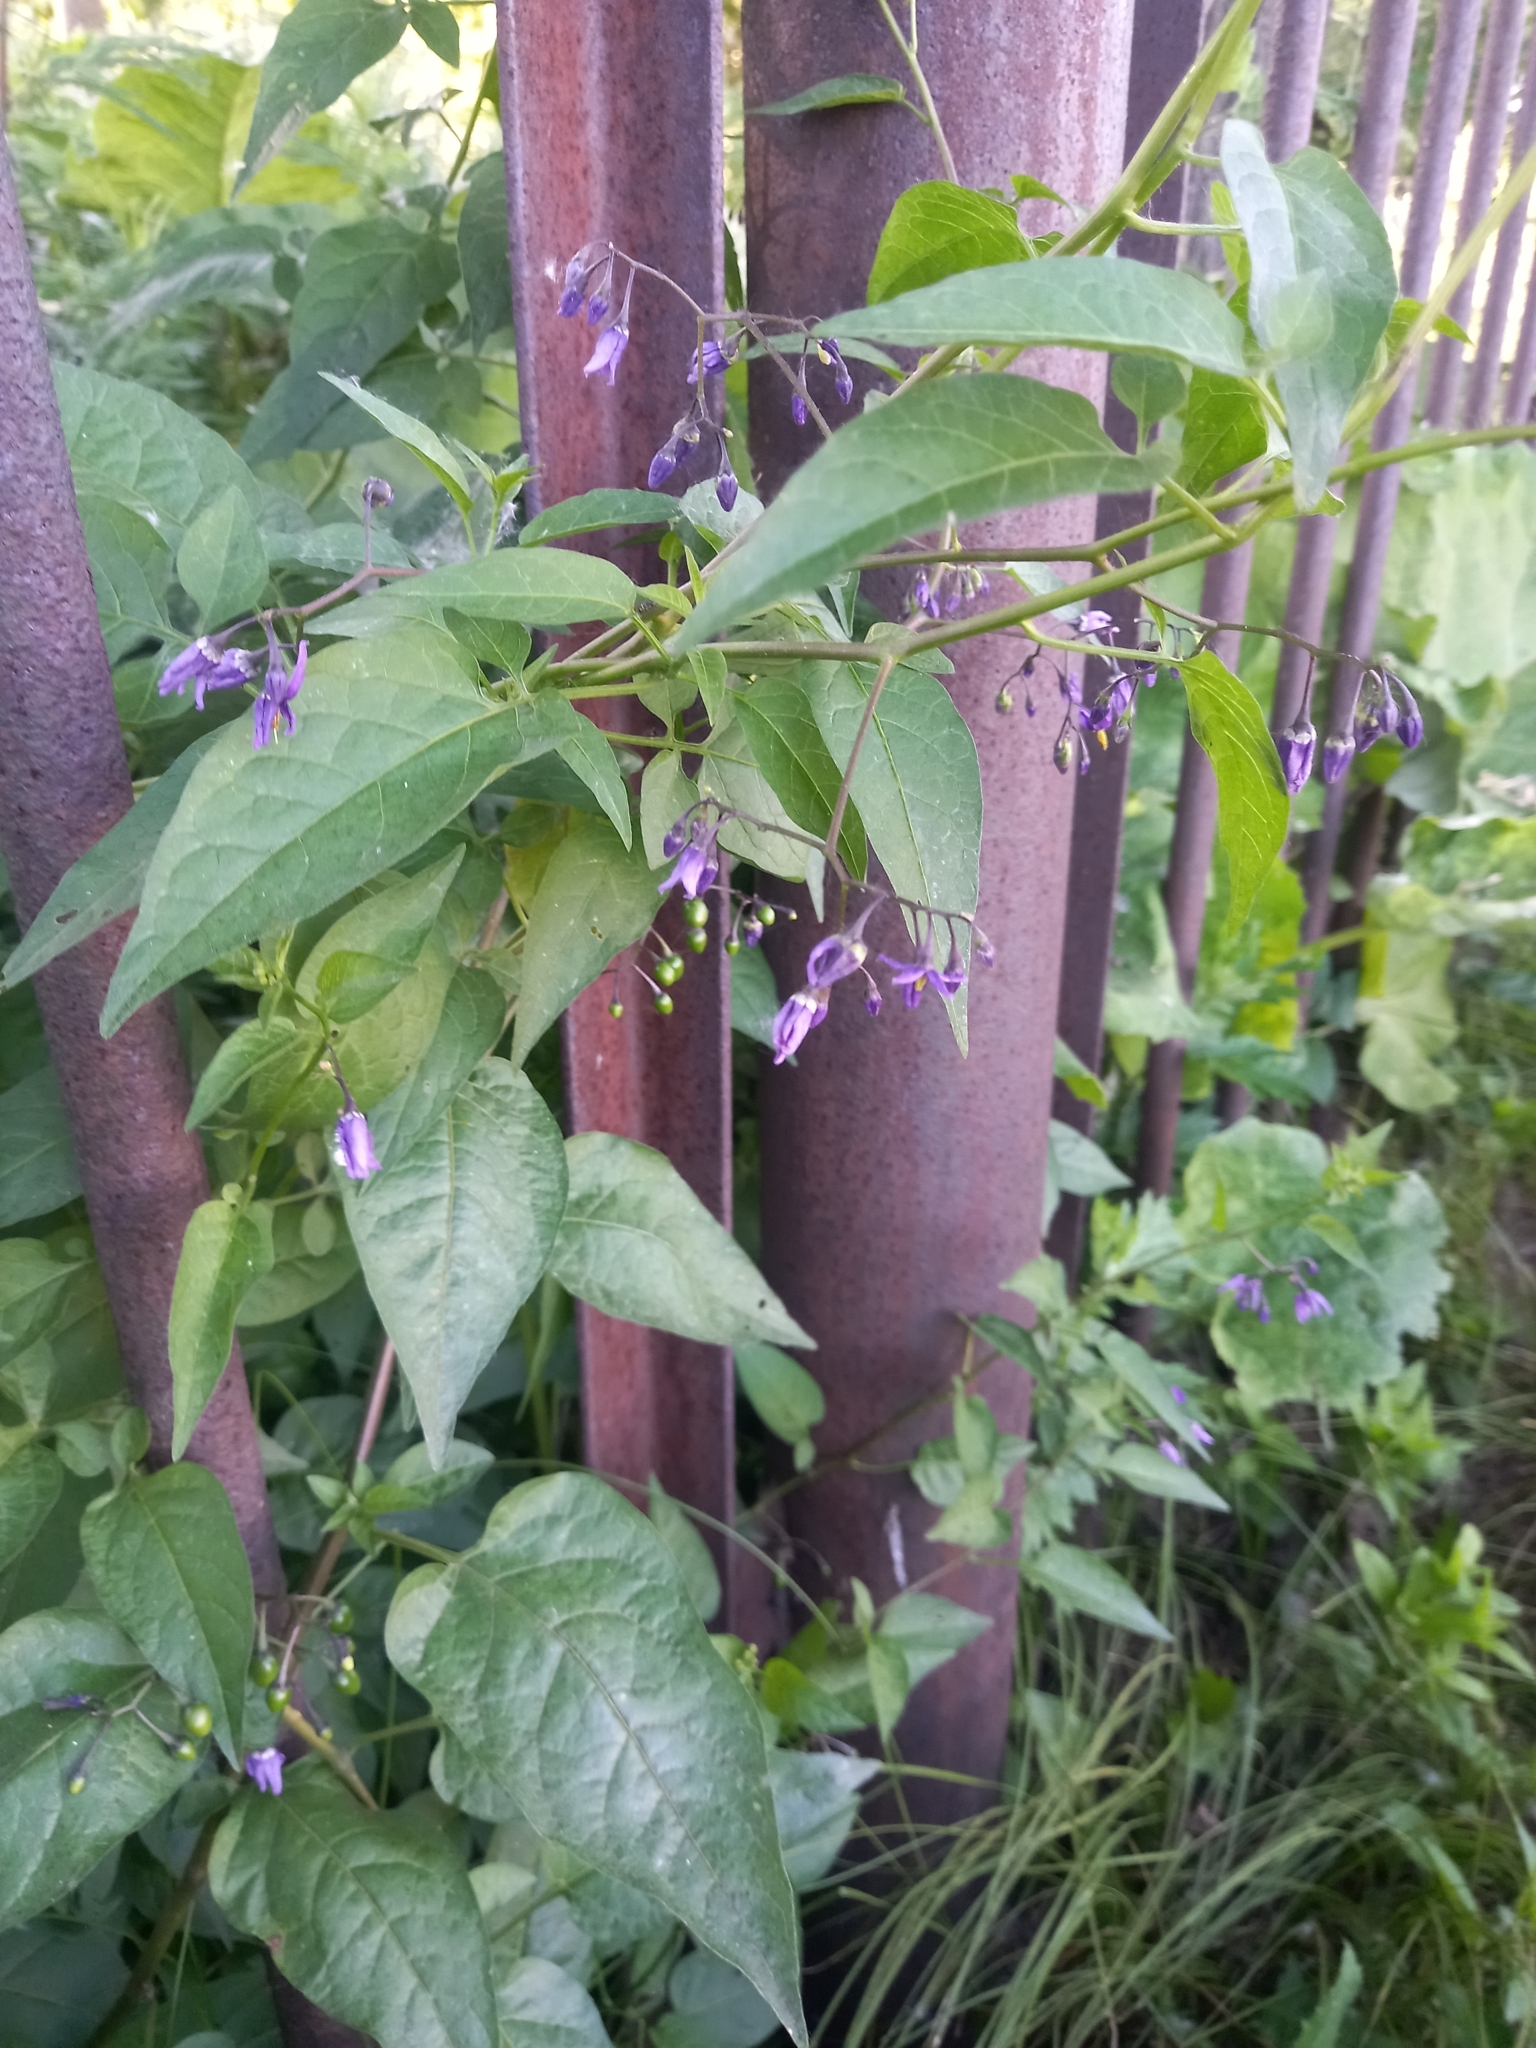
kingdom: Plantae
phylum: Tracheophyta
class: Magnoliopsida
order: Solanales
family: Solanaceae
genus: Solanum
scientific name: Solanum dulcamara
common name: Climbing nightshade
